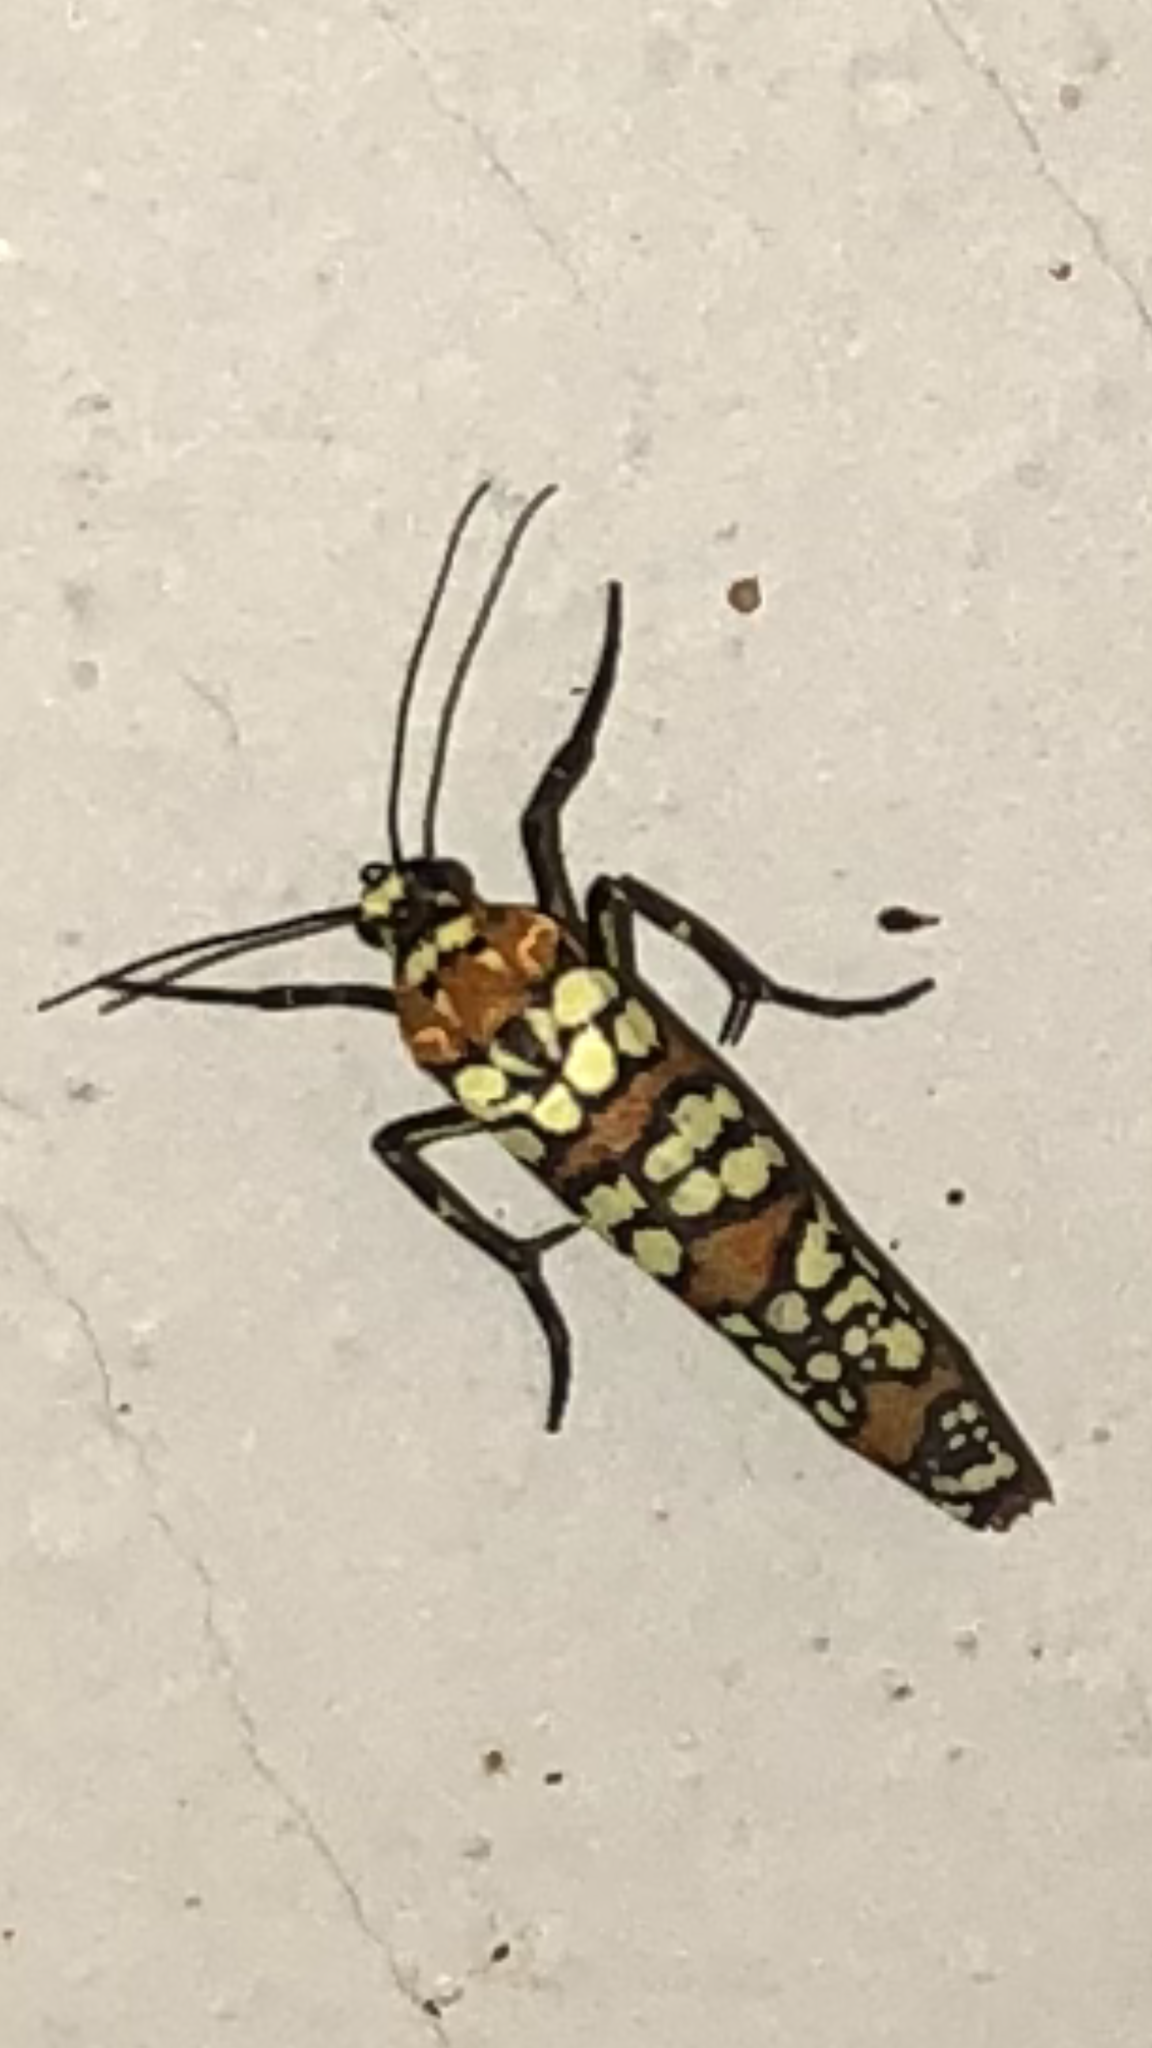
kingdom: Animalia
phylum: Arthropoda
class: Insecta
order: Lepidoptera
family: Attevidae
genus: Atteva
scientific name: Atteva punctella
